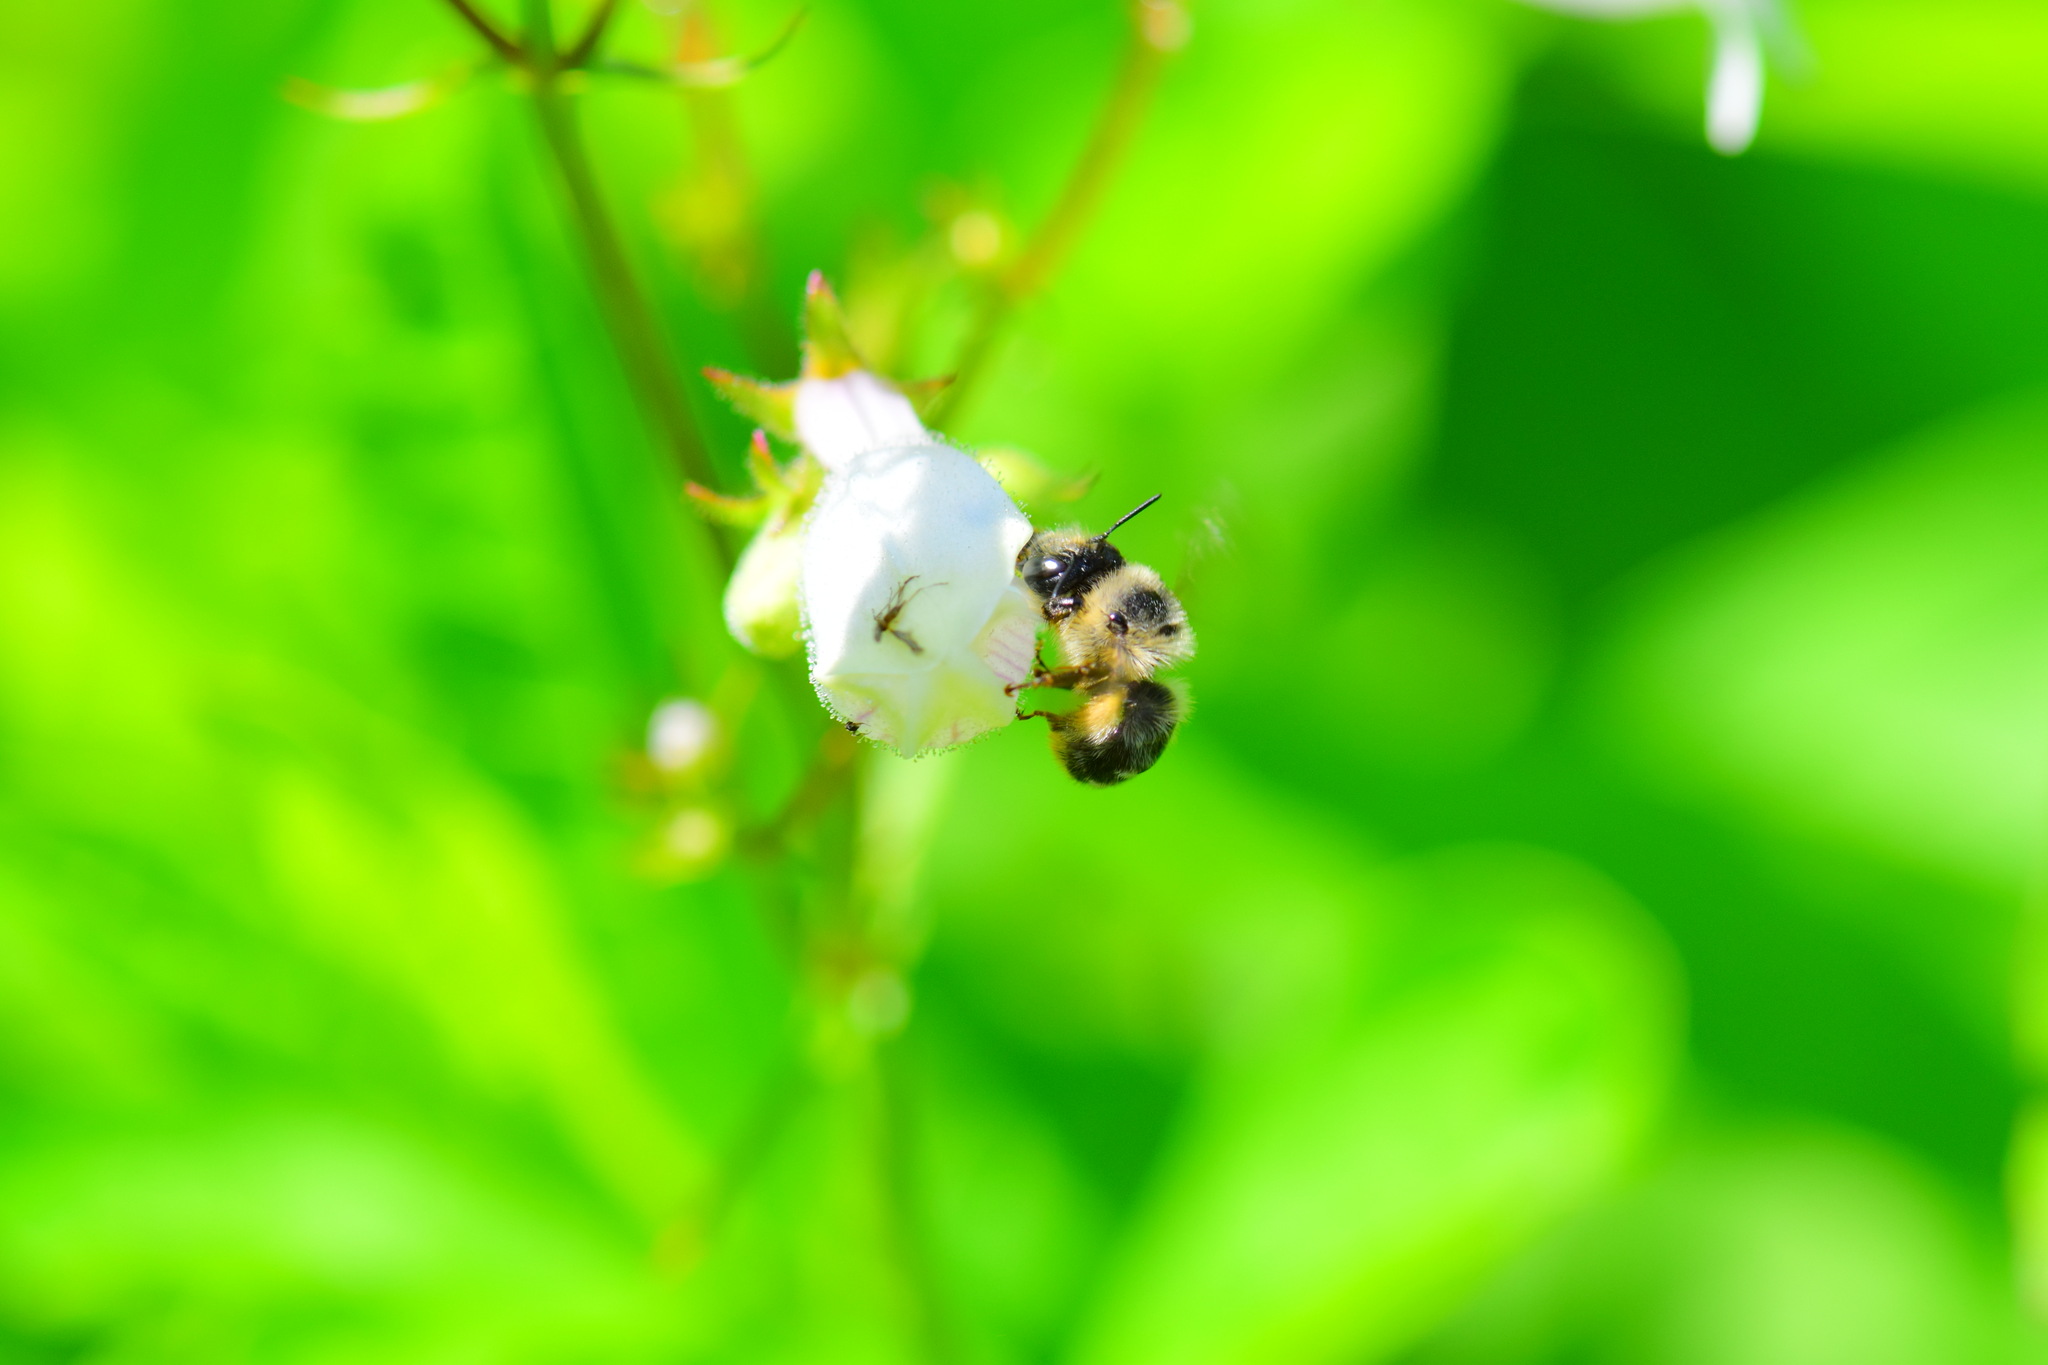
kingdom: Animalia
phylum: Arthropoda
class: Insecta
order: Hymenoptera
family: Apidae
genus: Anthophora
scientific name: Anthophora terminalis
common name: Orange-tipped wood-digger bee
